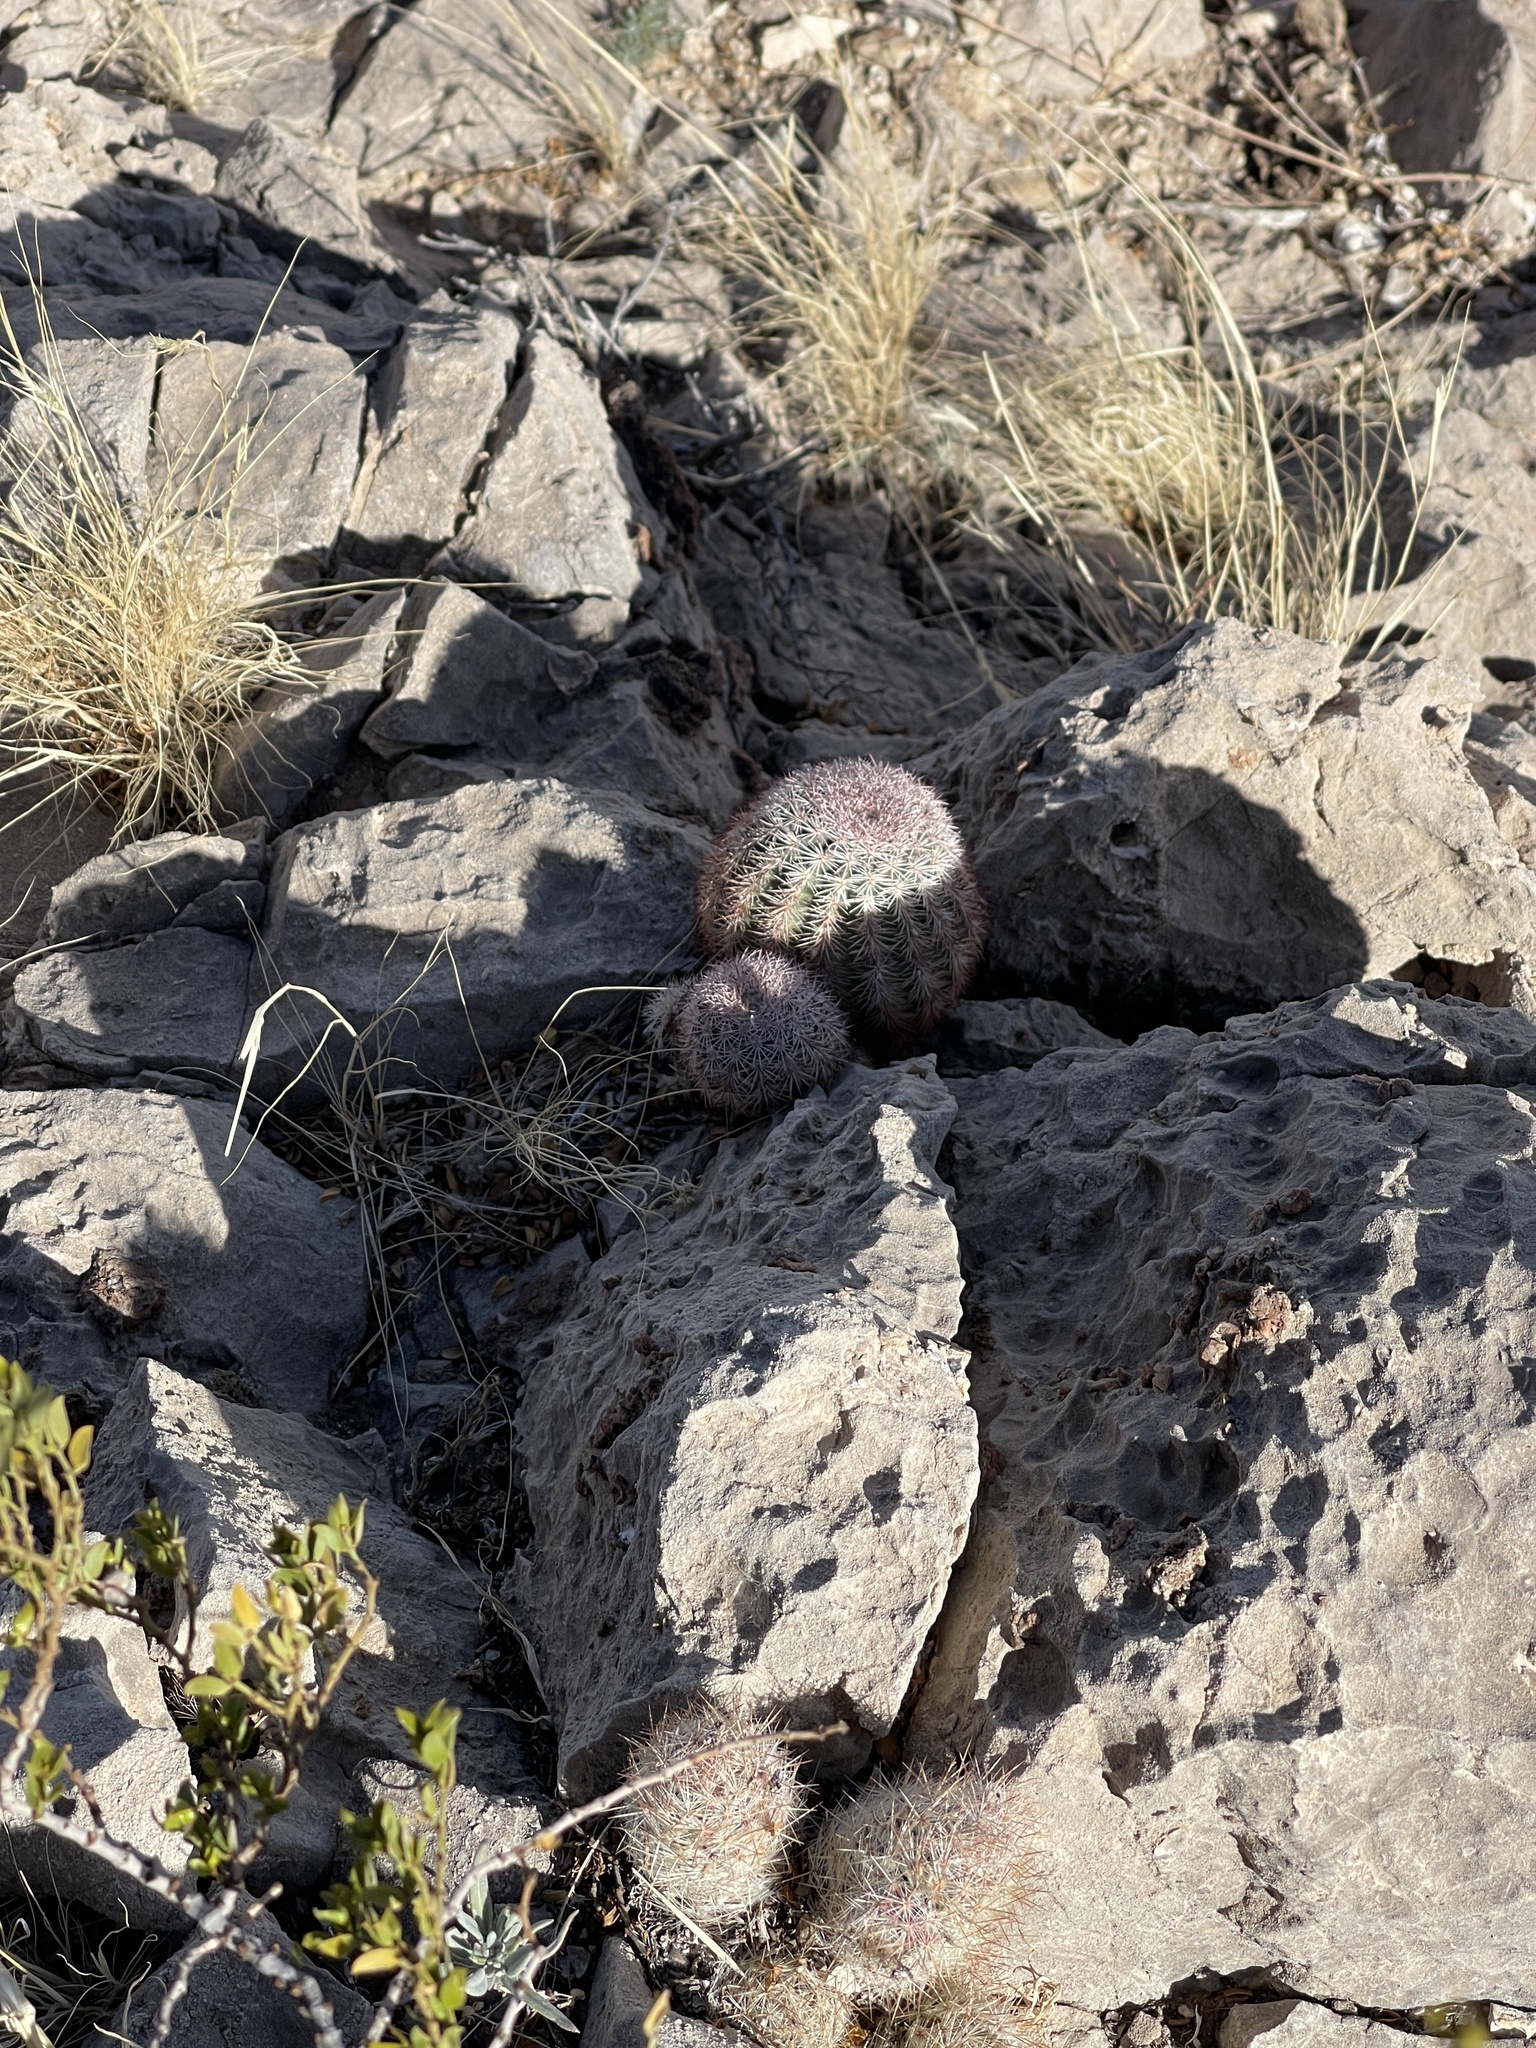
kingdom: Plantae
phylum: Tracheophyta
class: Magnoliopsida
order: Caryophyllales
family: Cactaceae
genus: Echinocereus
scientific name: Echinocereus dasyacanthus
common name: Spiny hedgehog cactus
